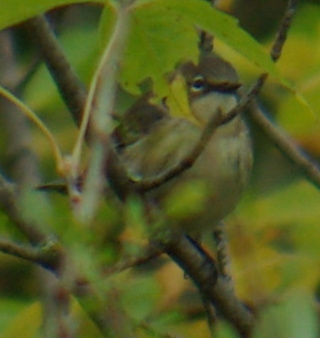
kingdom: Animalia
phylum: Chordata
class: Aves
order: Passeriformes
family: Parulidae
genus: Setophaga
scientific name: Setophaga coronata
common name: Myrtle warbler
